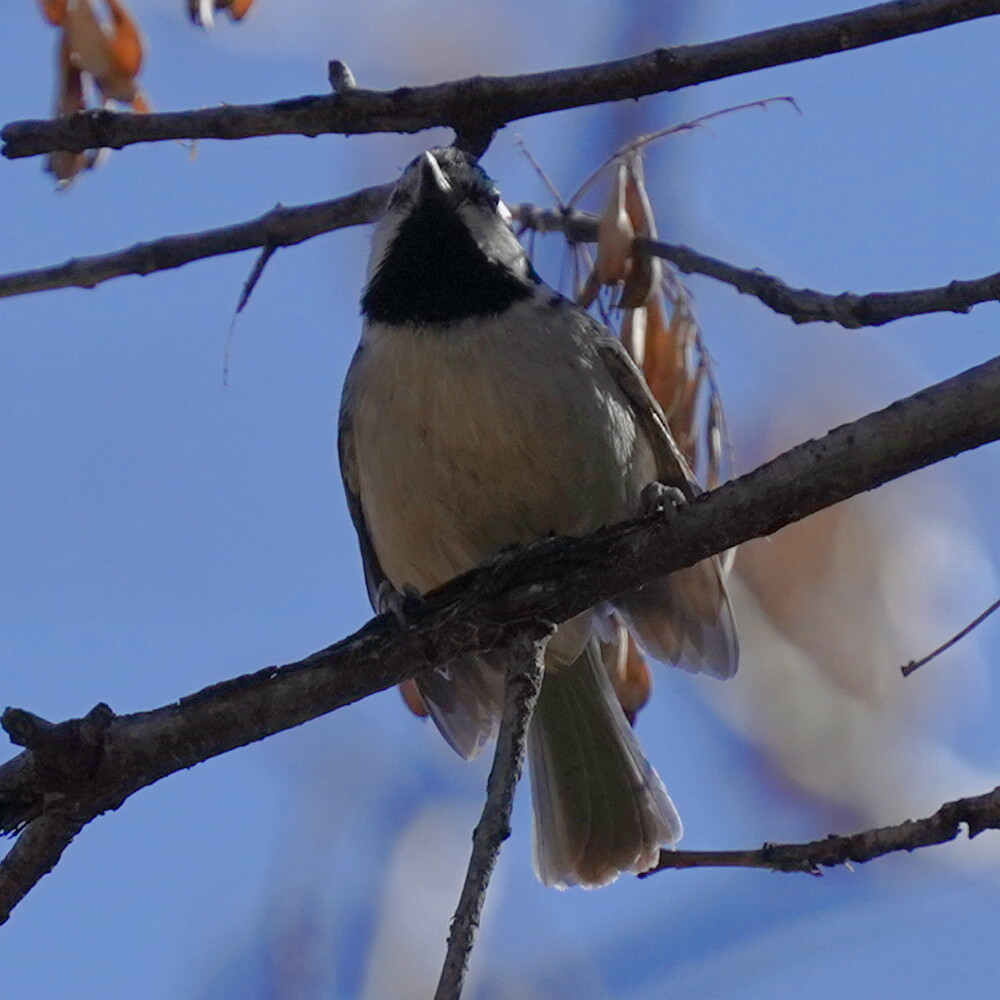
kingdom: Animalia
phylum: Chordata
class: Aves
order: Passeriformes
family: Paridae
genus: Baeolophus
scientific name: Baeolophus wollweberi
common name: Bridled titmouse
